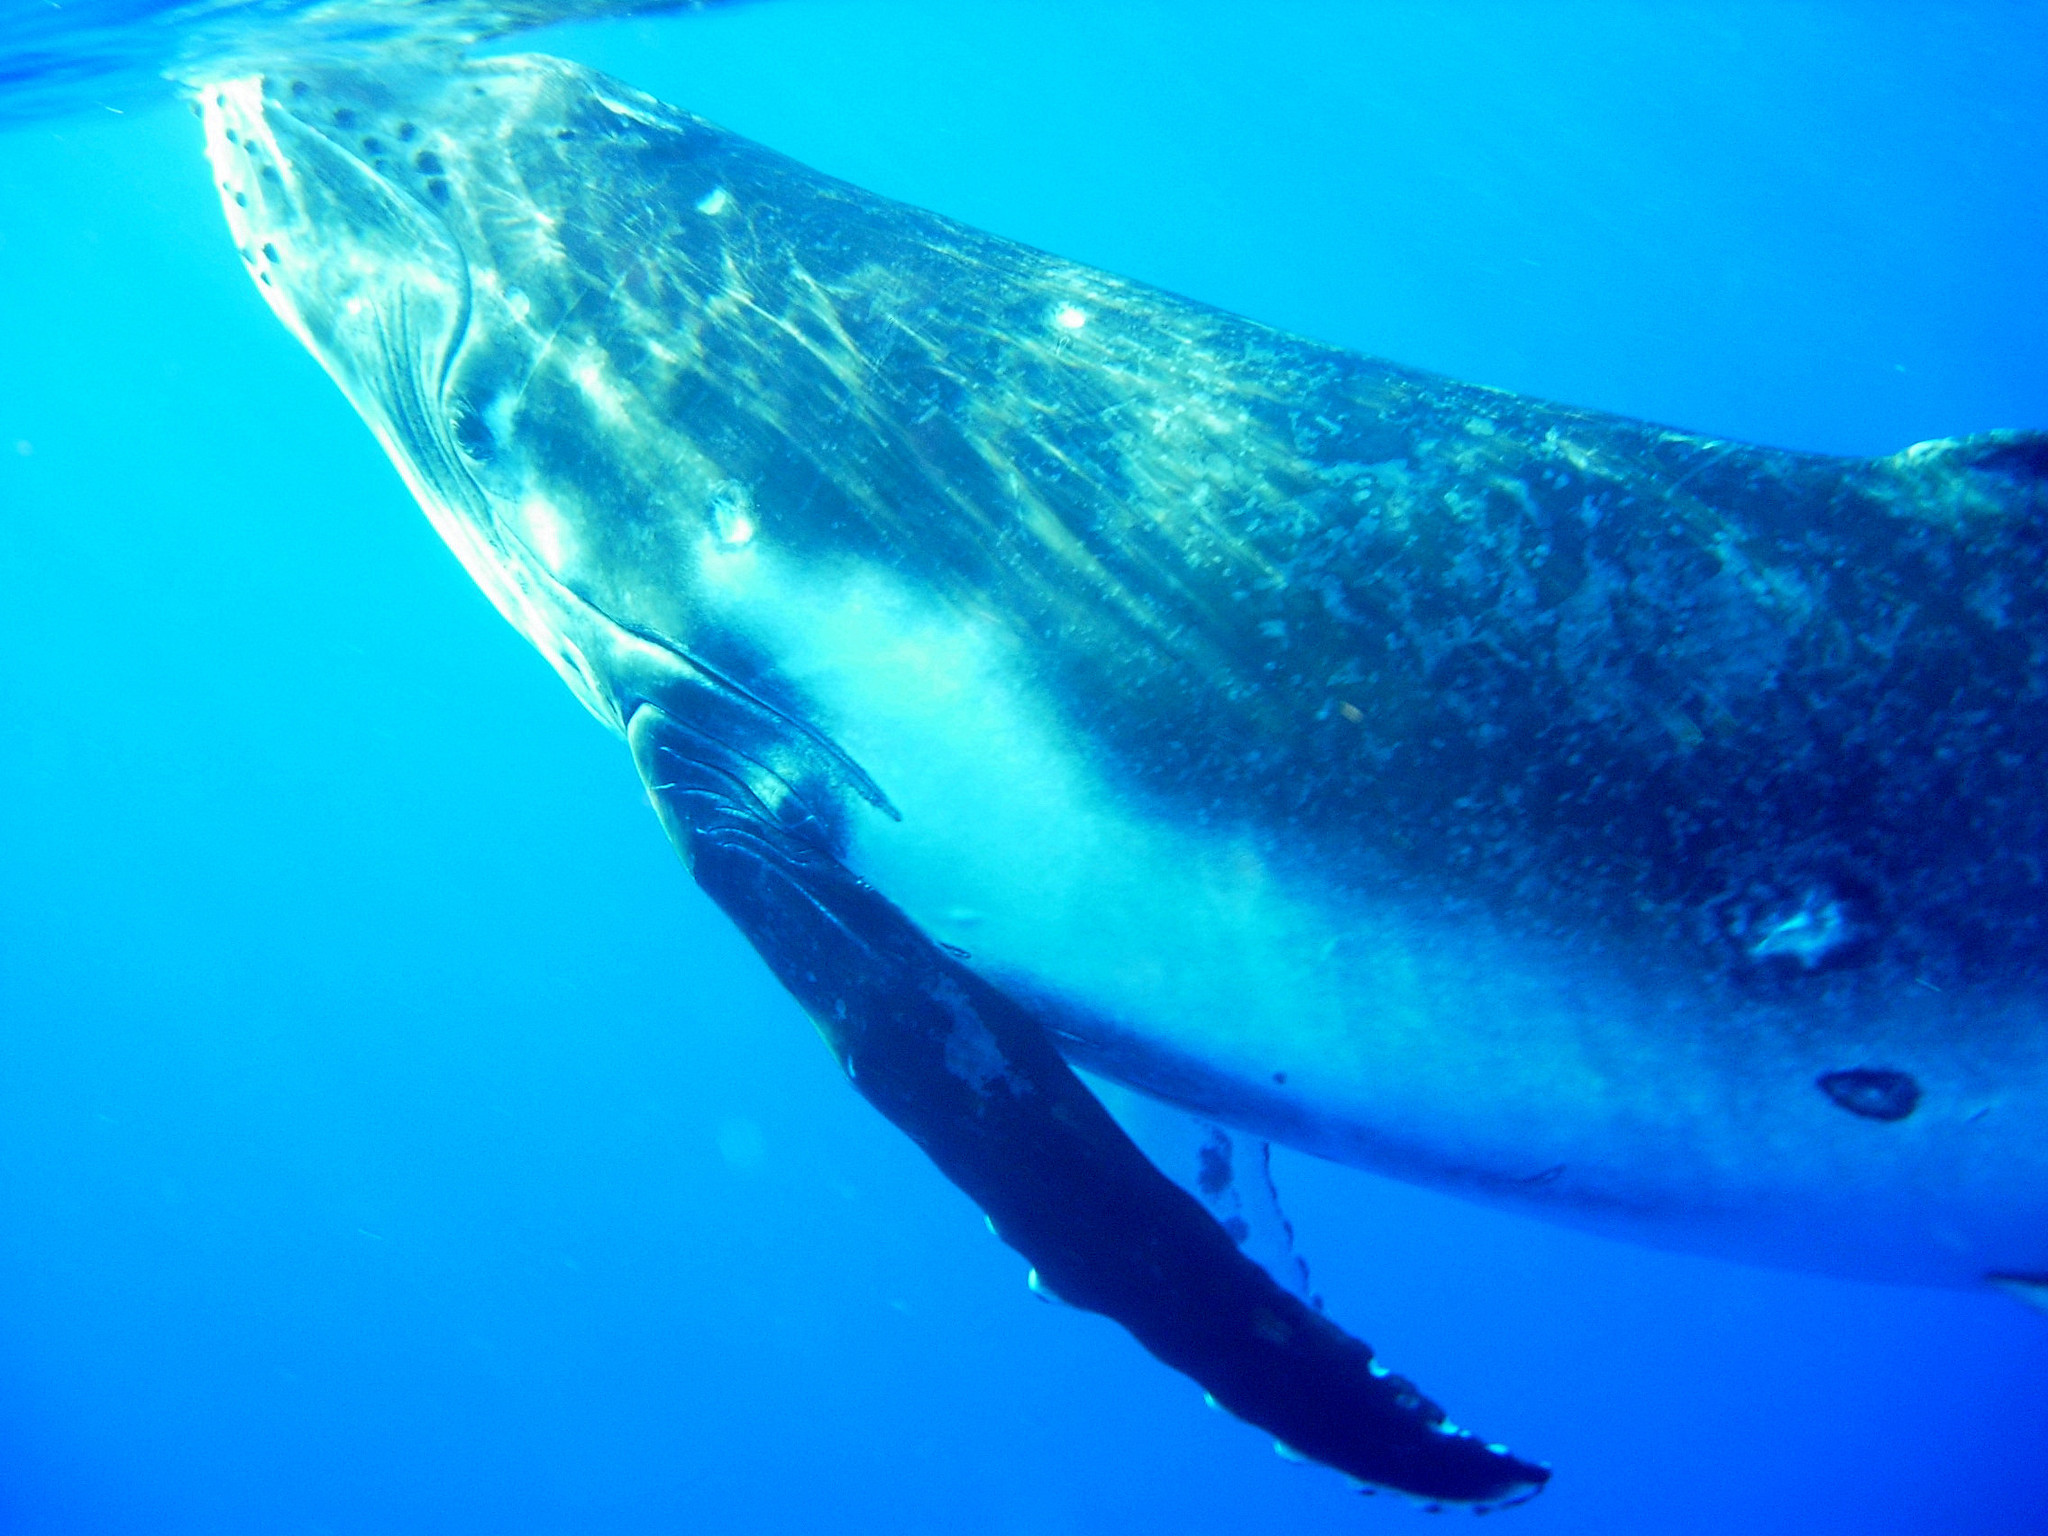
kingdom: Animalia
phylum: Chordata
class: Mammalia
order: Cetacea
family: Balaenopteridae
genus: Megaptera
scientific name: Megaptera novaeangliae
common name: Humpback whale
